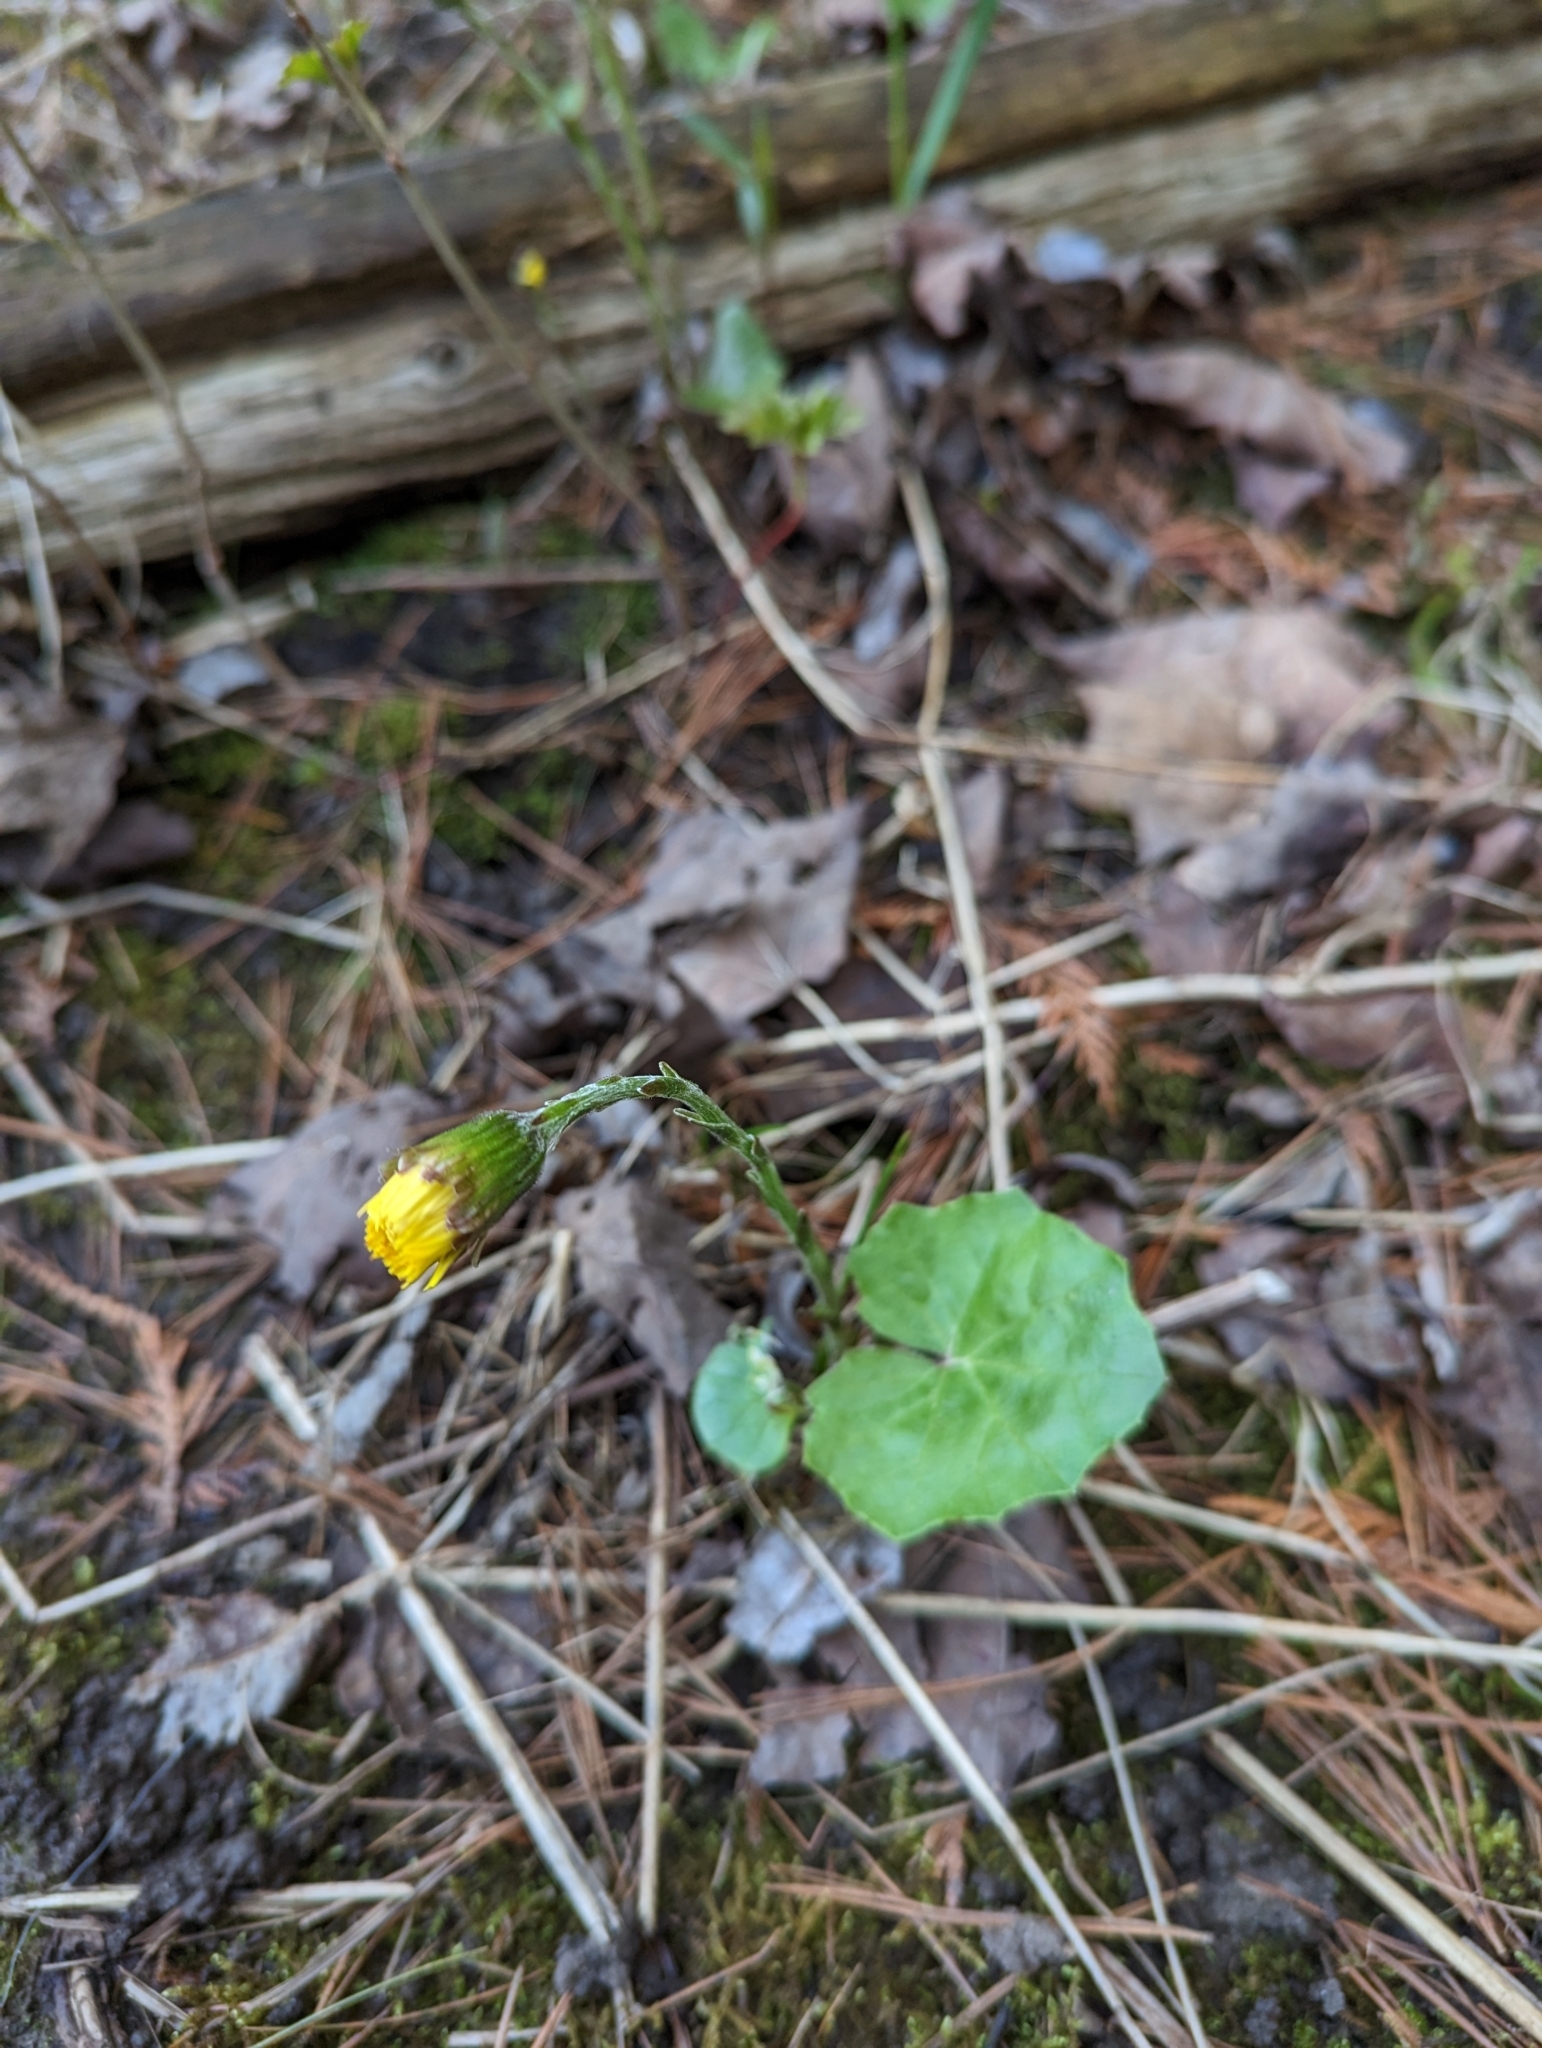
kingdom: Plantae
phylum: Tracheophyta
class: Magnoliopsida
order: Asterales
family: Asteraceae
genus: Tussilago
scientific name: Tussilago farfara
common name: Coltsfoot
